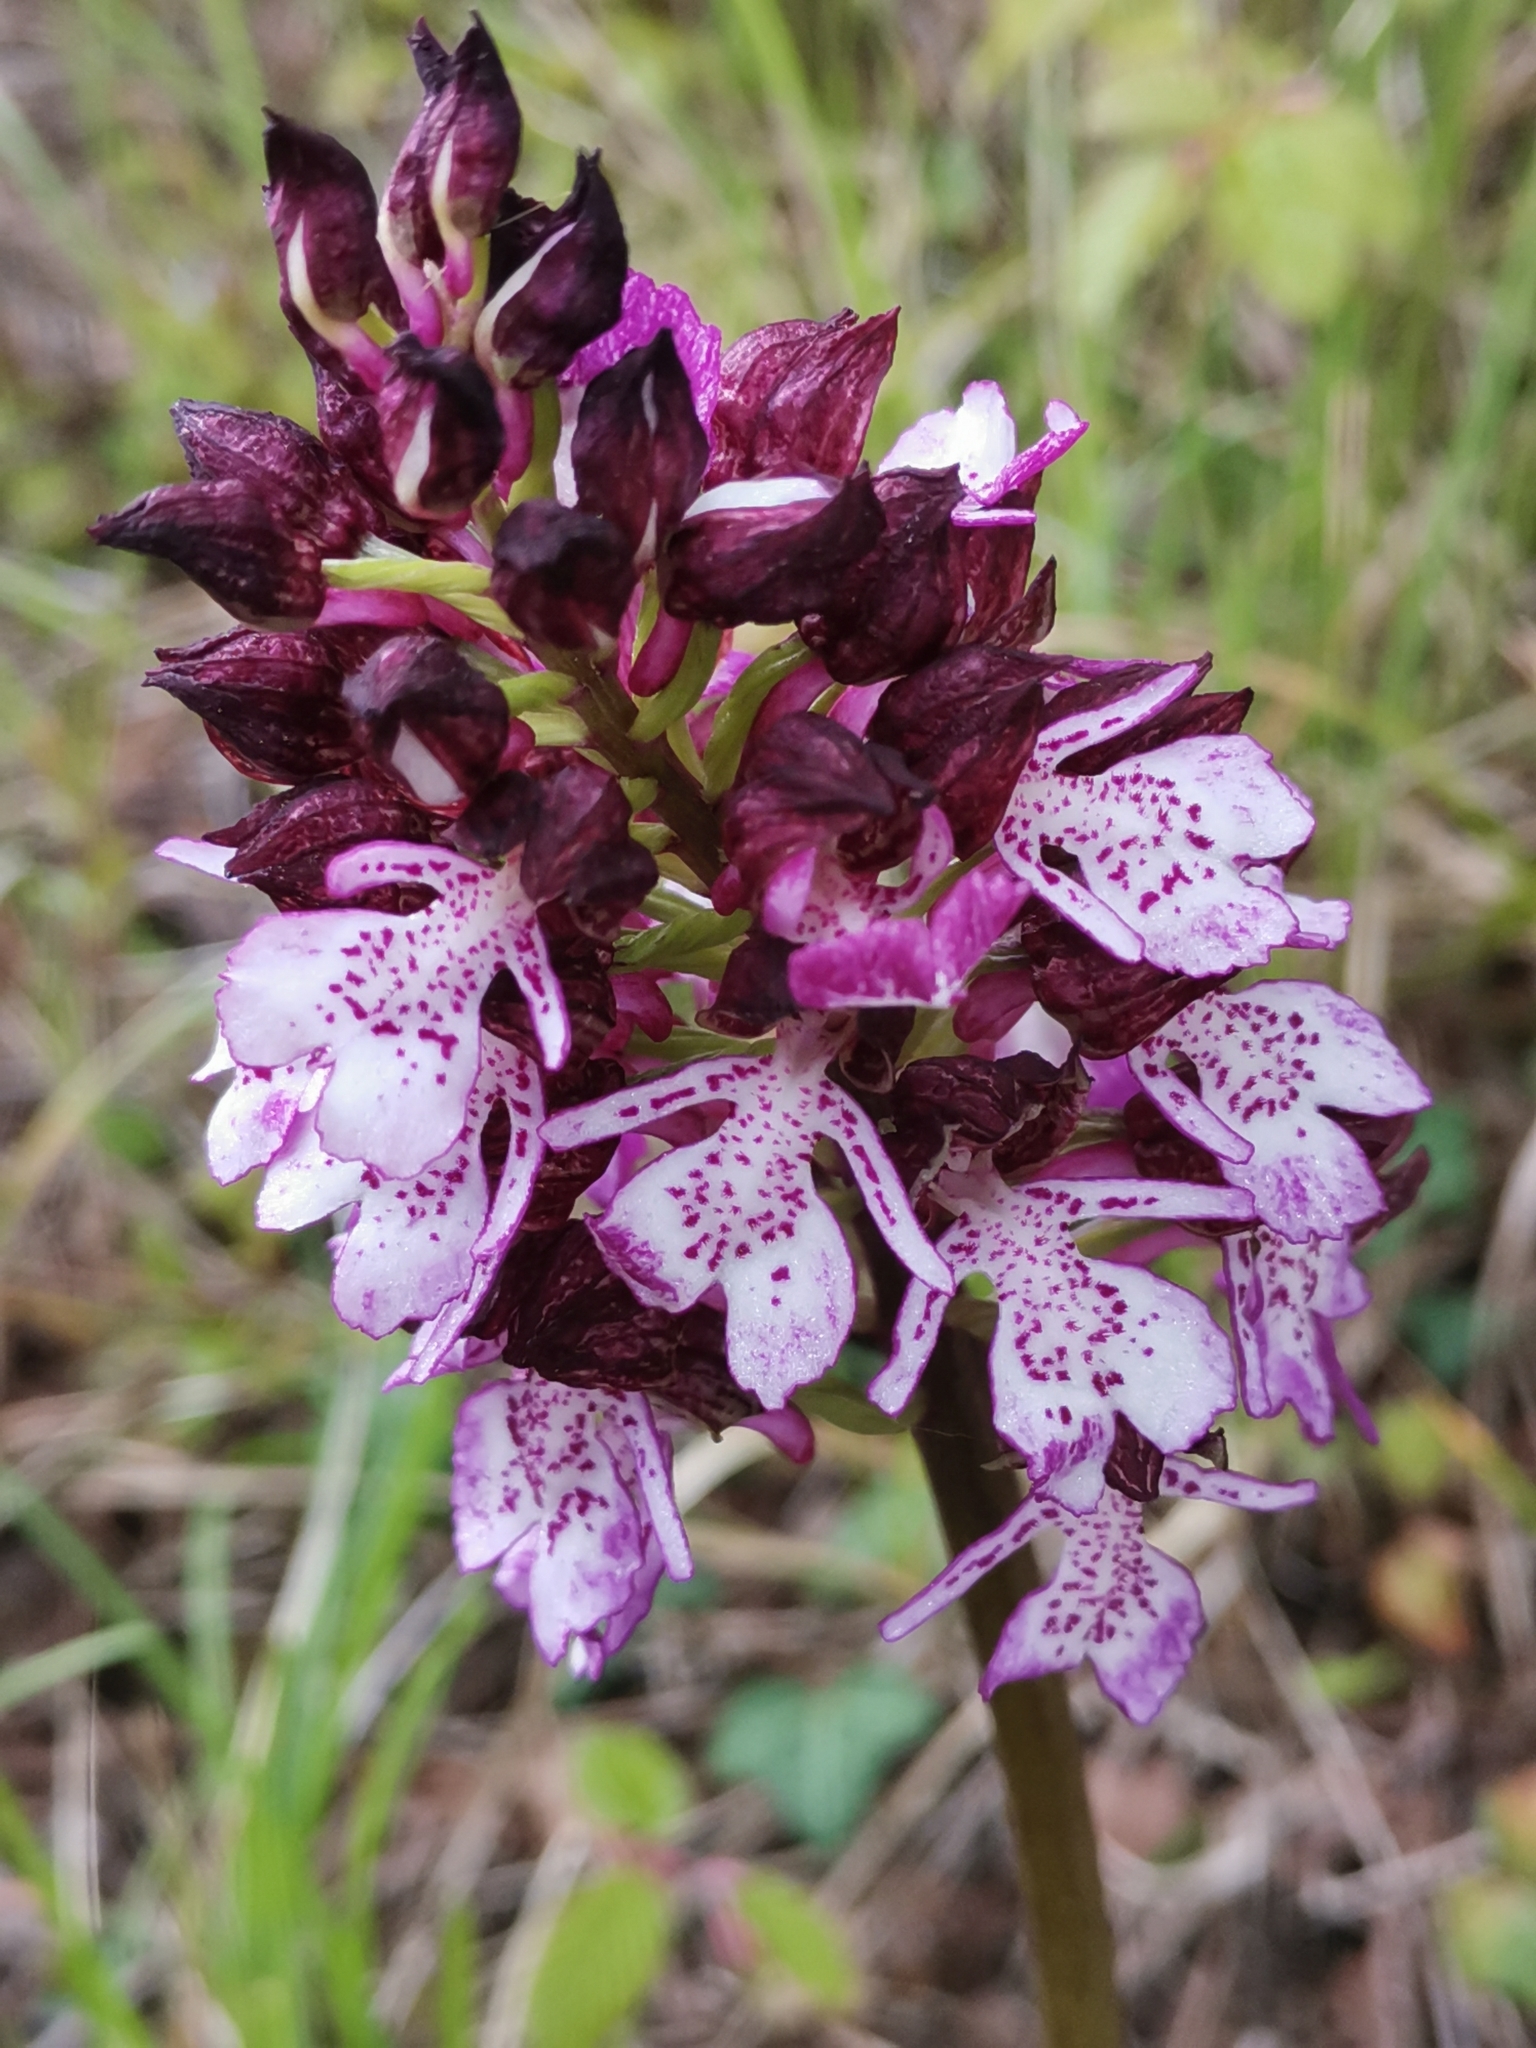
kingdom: Plantae
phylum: Tracheophyta
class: Liliopsida
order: Asparagales
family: Orchidaceae
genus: Orchis
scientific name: Orchis purpurea
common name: Lady orchid
